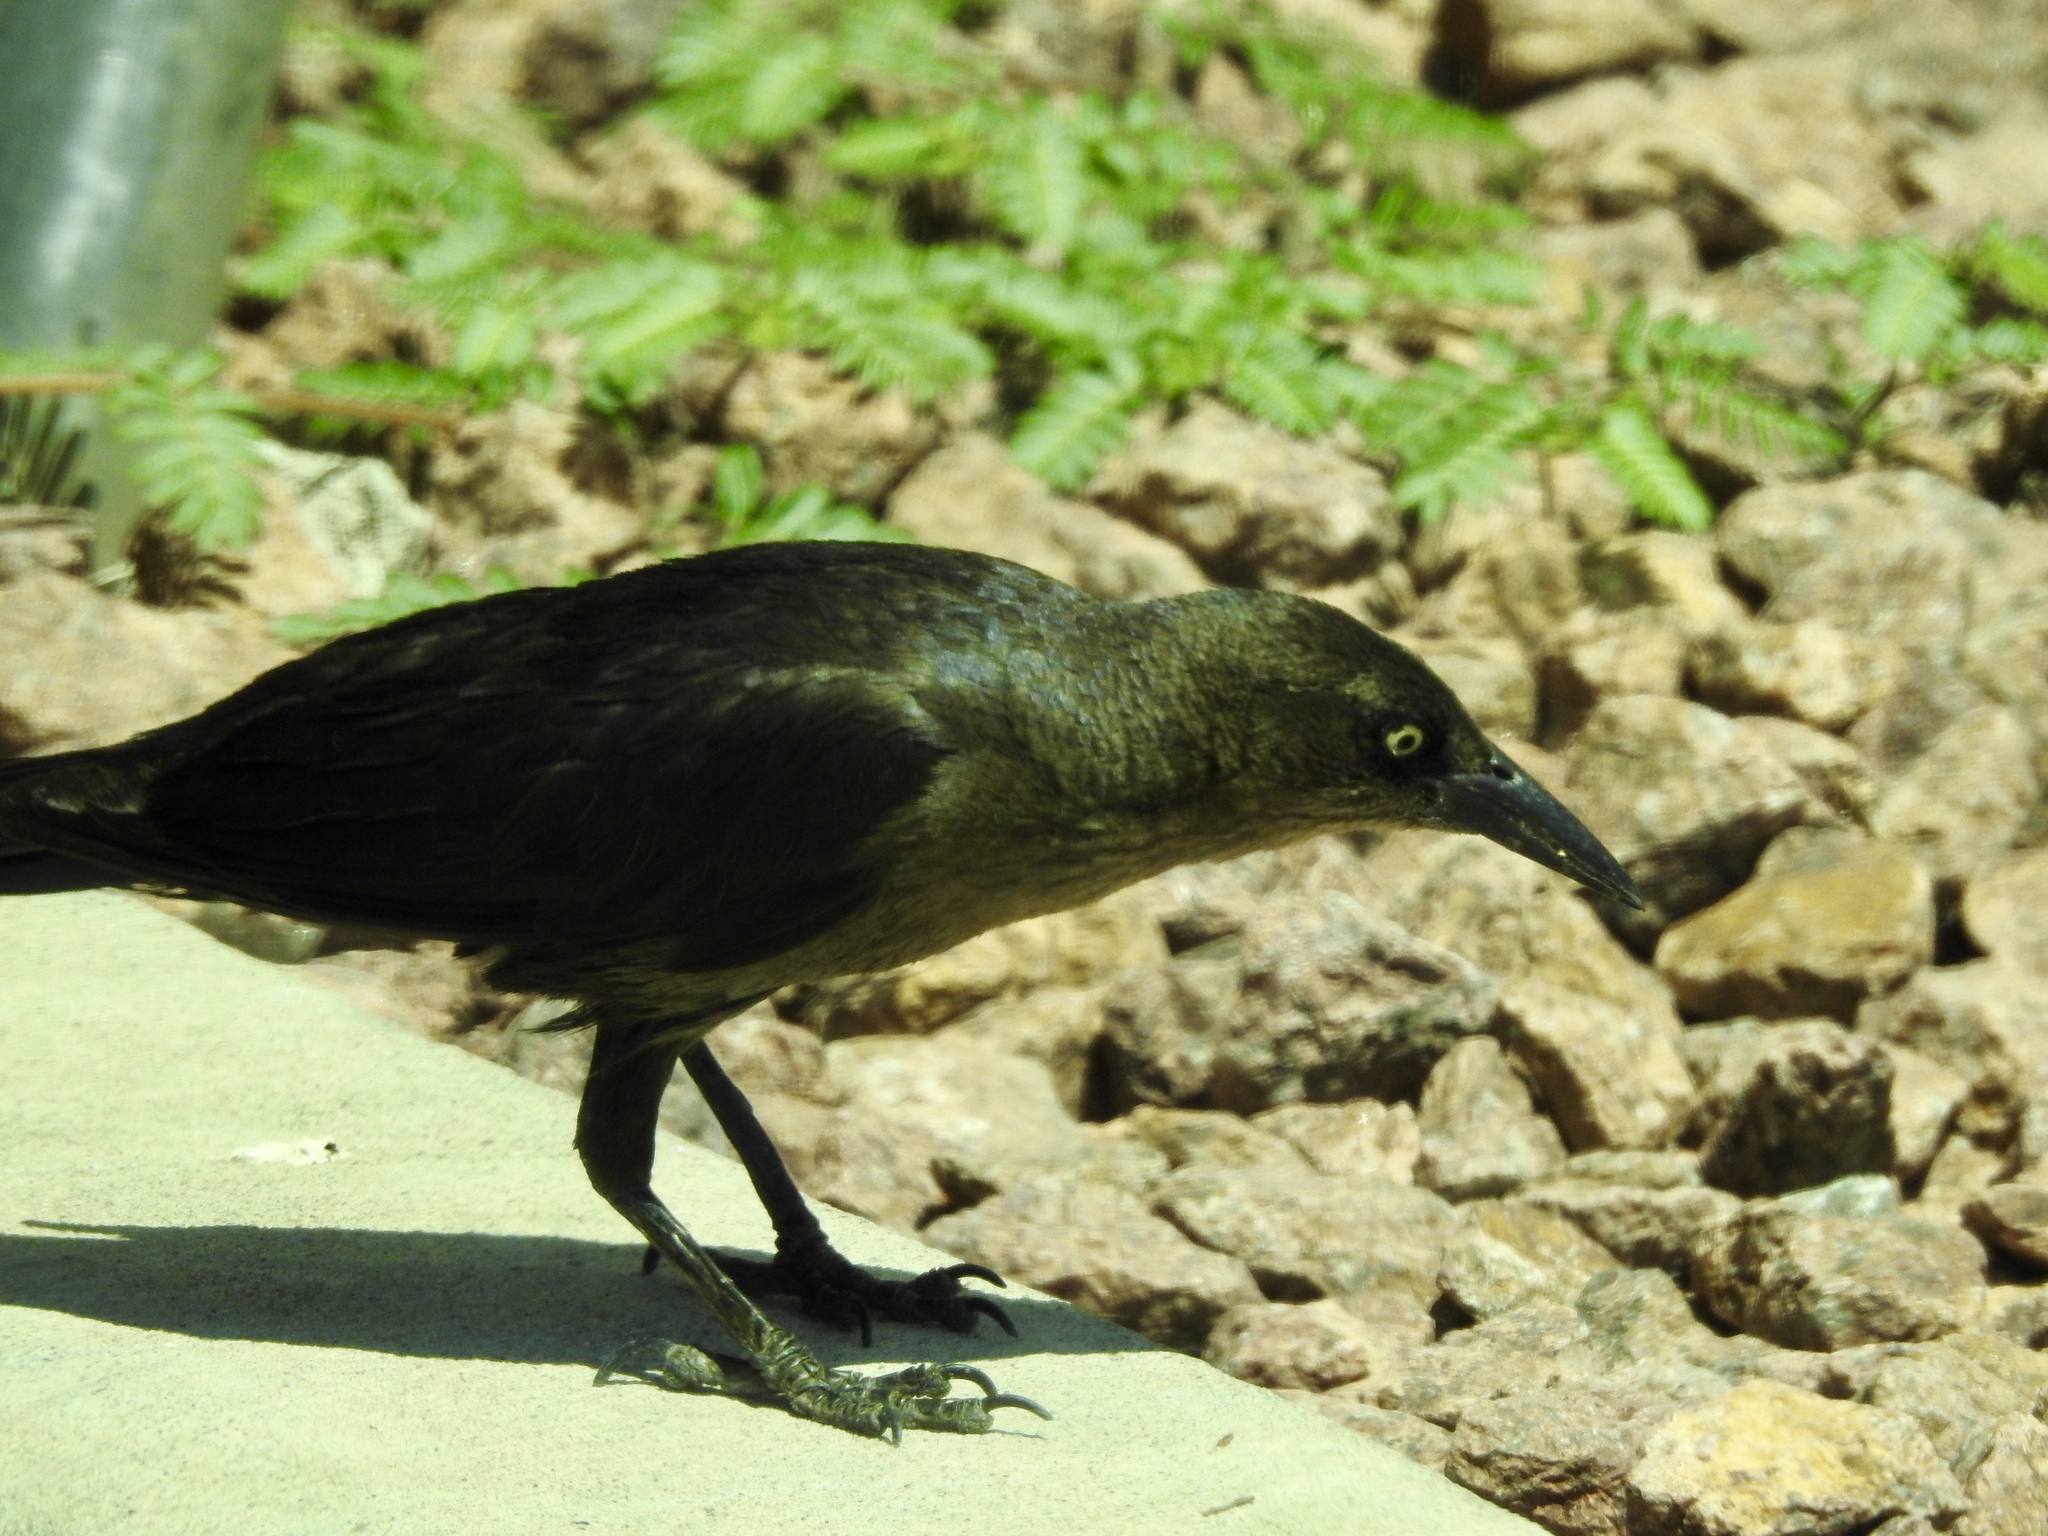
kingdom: Animalia
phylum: Chordata
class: Aves
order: Passeriformes
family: Icteridae
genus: Quiscalus
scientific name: Quiscalus mexicanus
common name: Great-tailed grackle
